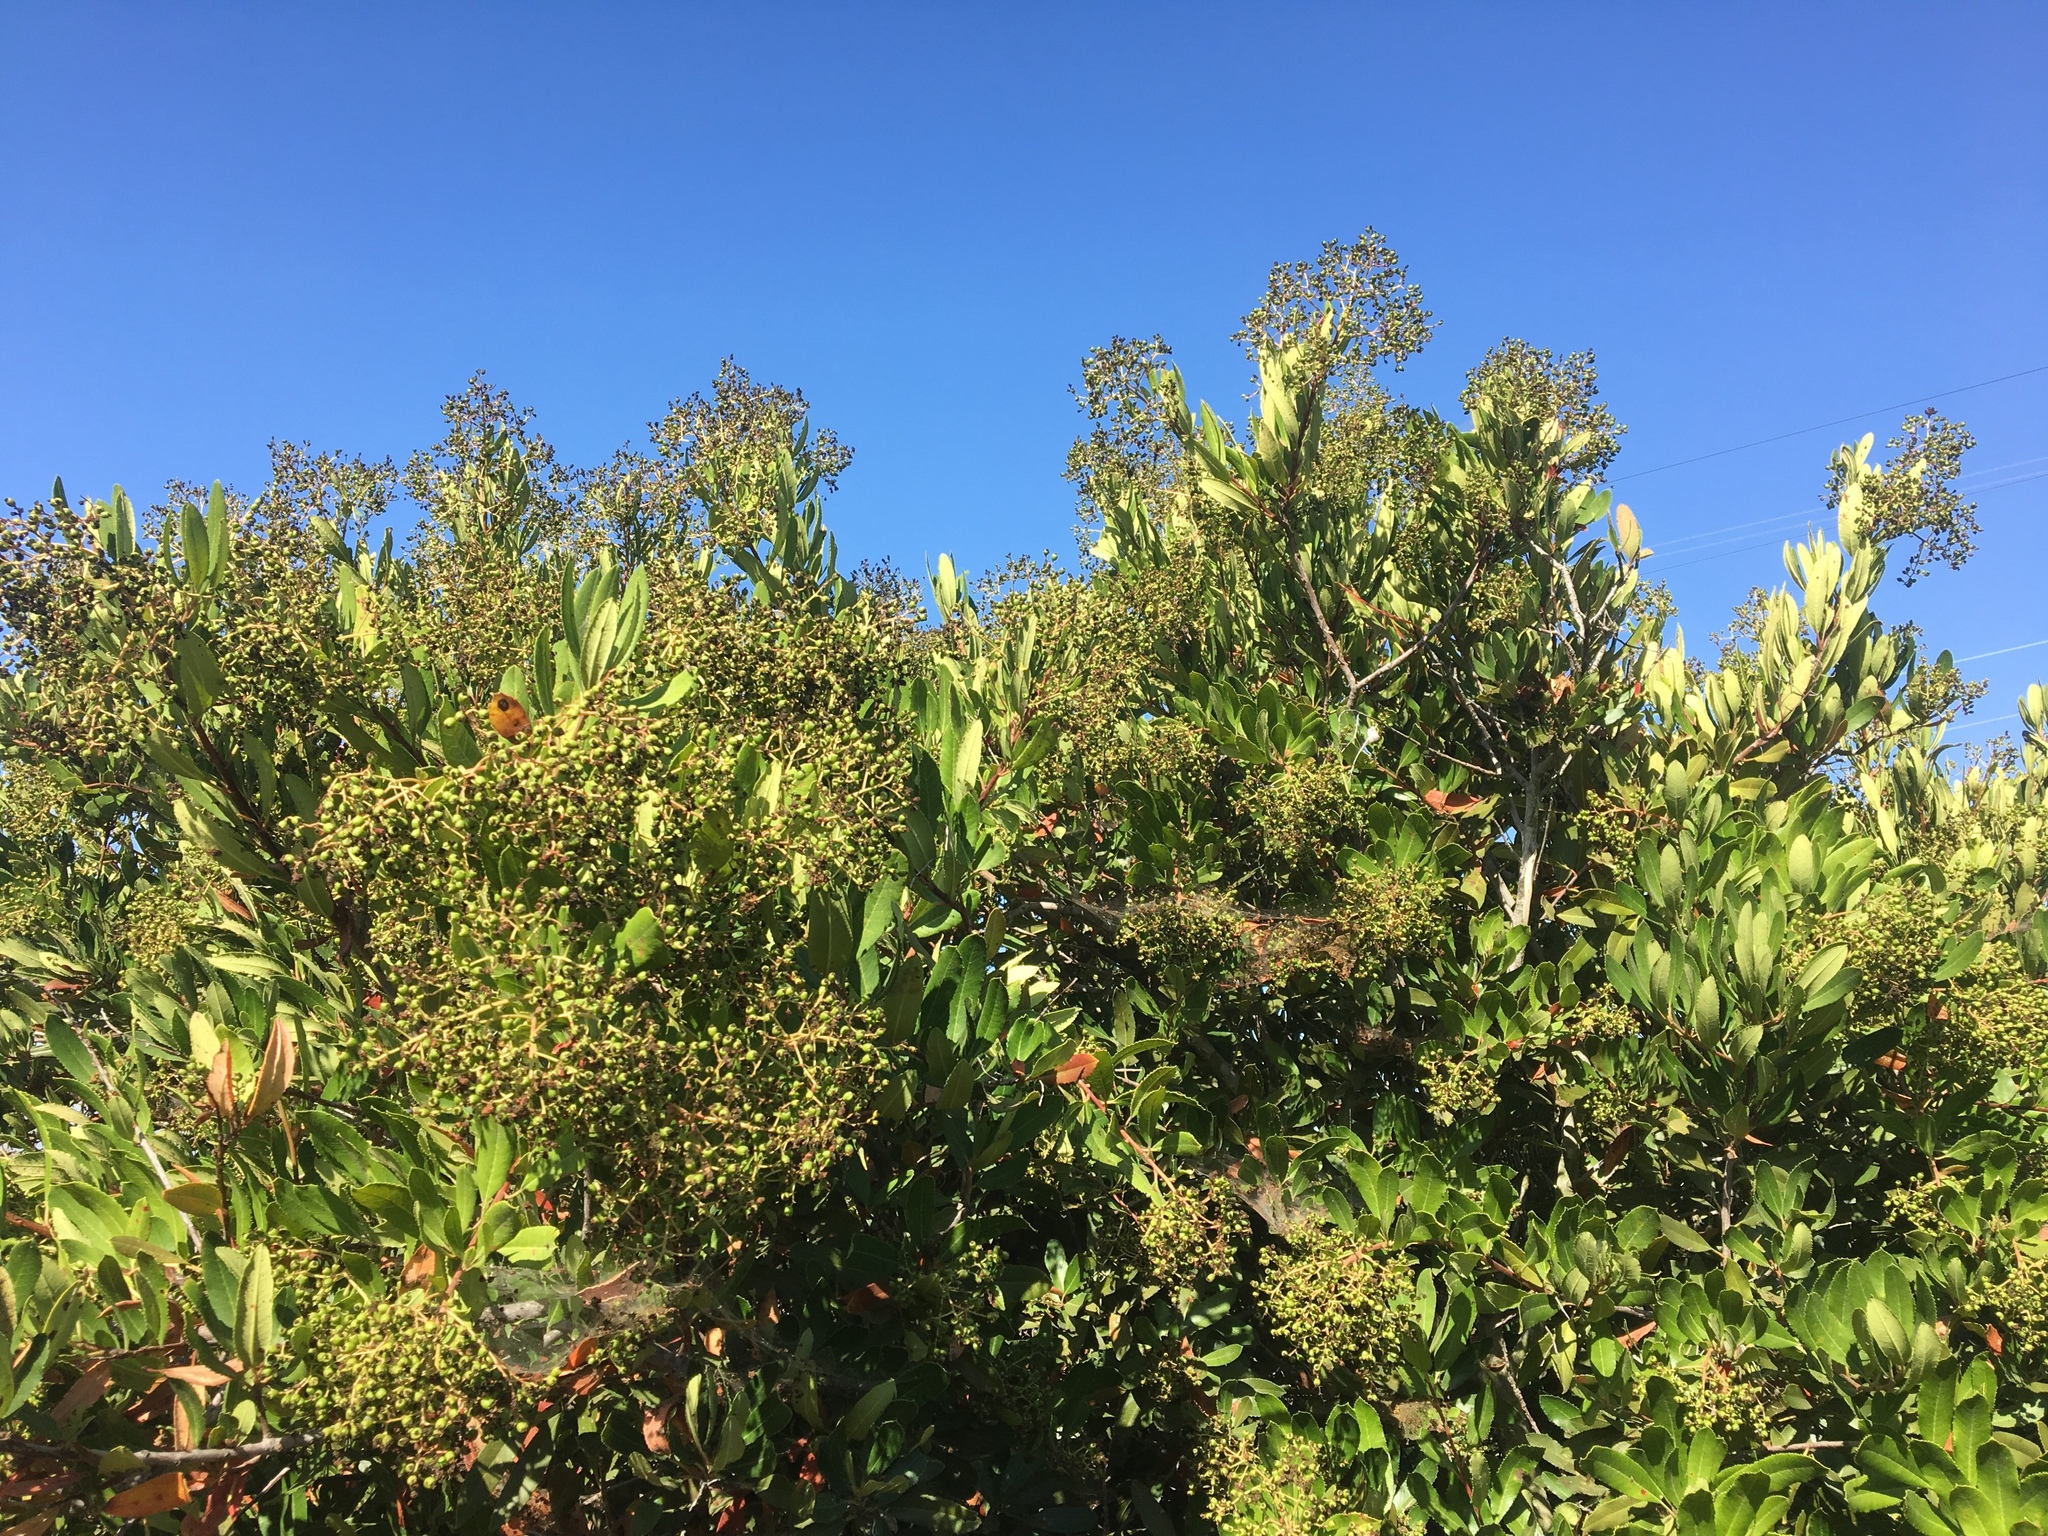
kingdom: Plantae
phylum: Tracheophyta
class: Magnoliopsida
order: Rosales
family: Rosaceae
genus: Heteromeles
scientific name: Heteromeles arbutifolia
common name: California-holly
